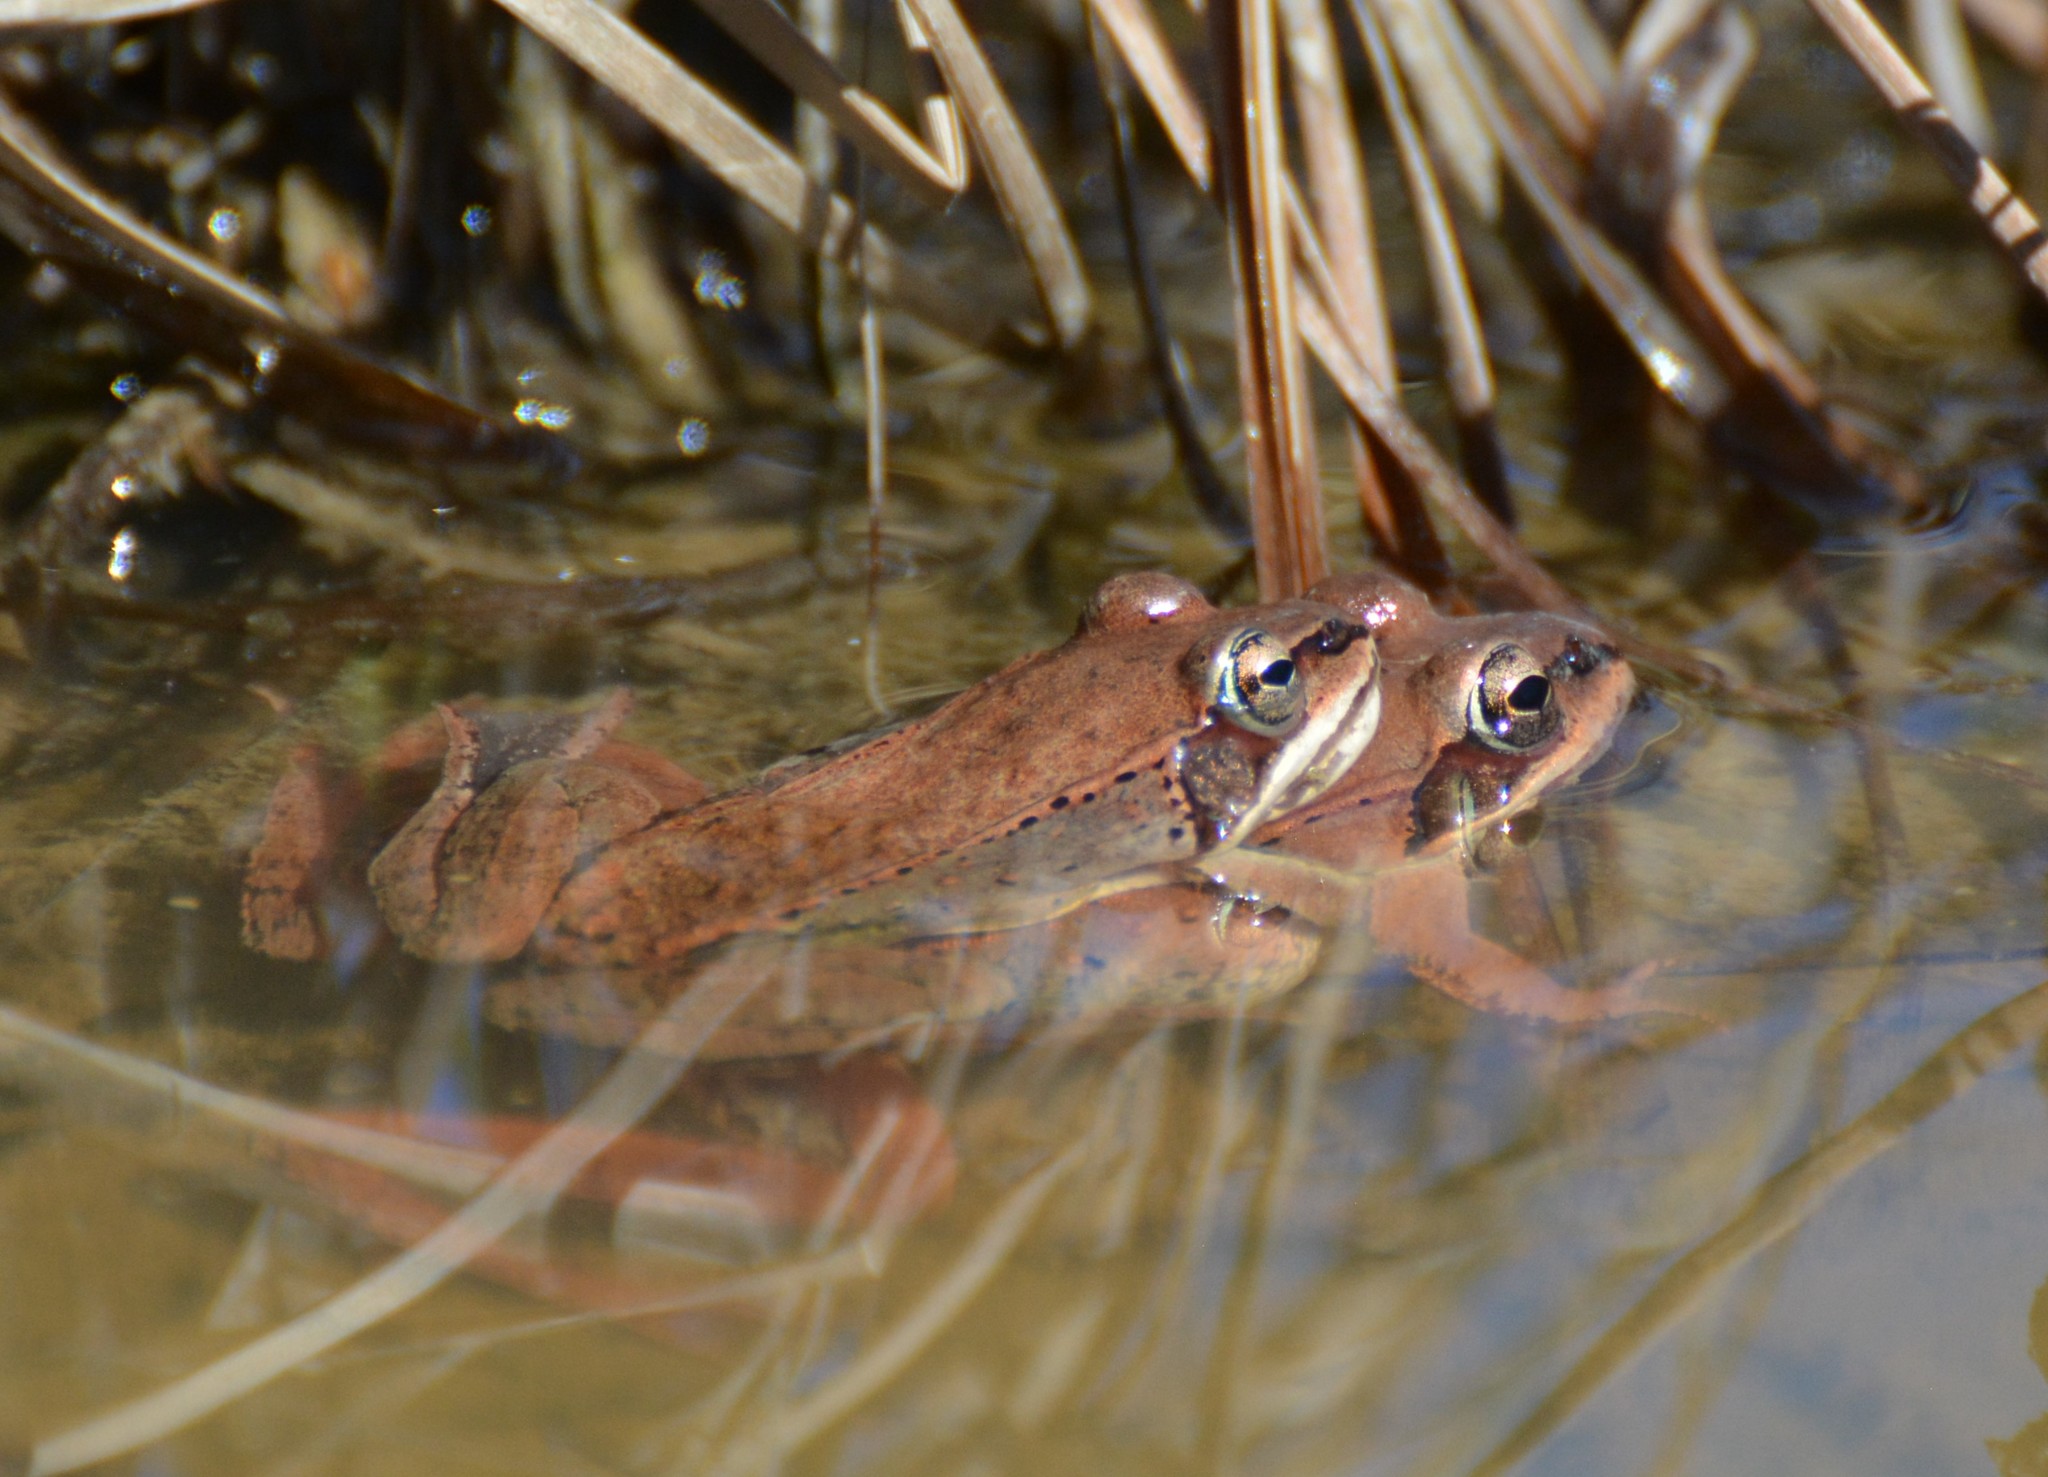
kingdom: Animalia
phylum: Chordata
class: Amphibia
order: Anura
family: Ranidae
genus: Lithobates
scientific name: Lithobates sylvaticus
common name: Wood frog
